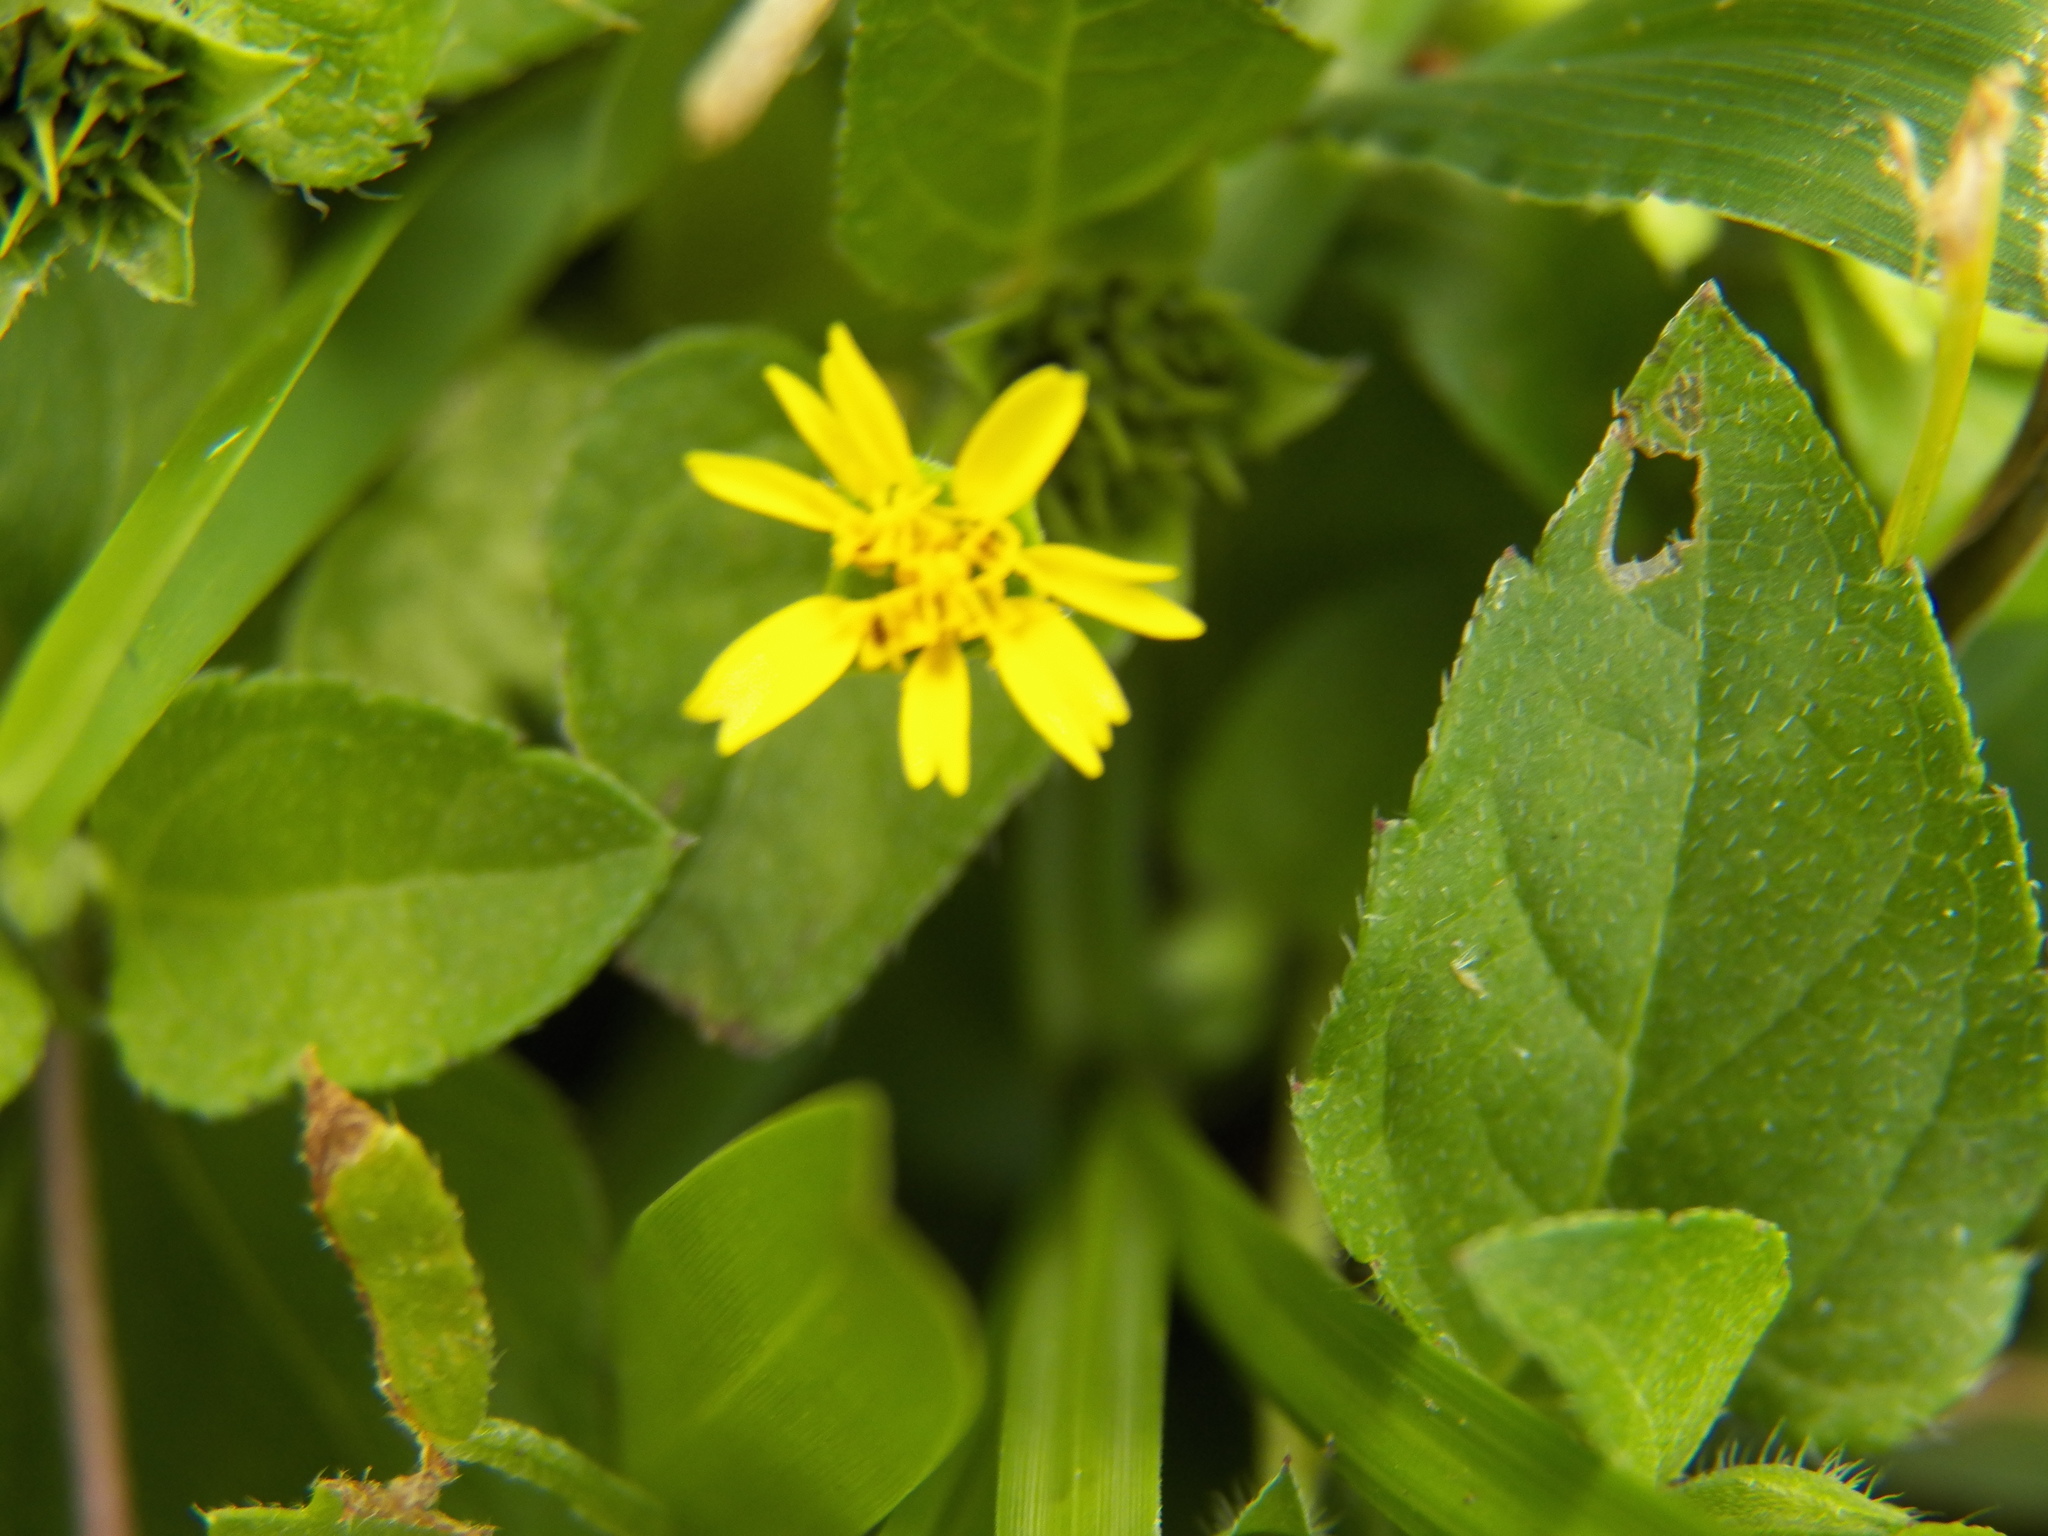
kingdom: Plantae
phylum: Tracheophyta
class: Magnoliopsida
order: Asterales
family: Asteraceae
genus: Calyptocarpus
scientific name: Calyptocarpus vialis
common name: Straggler daisy
